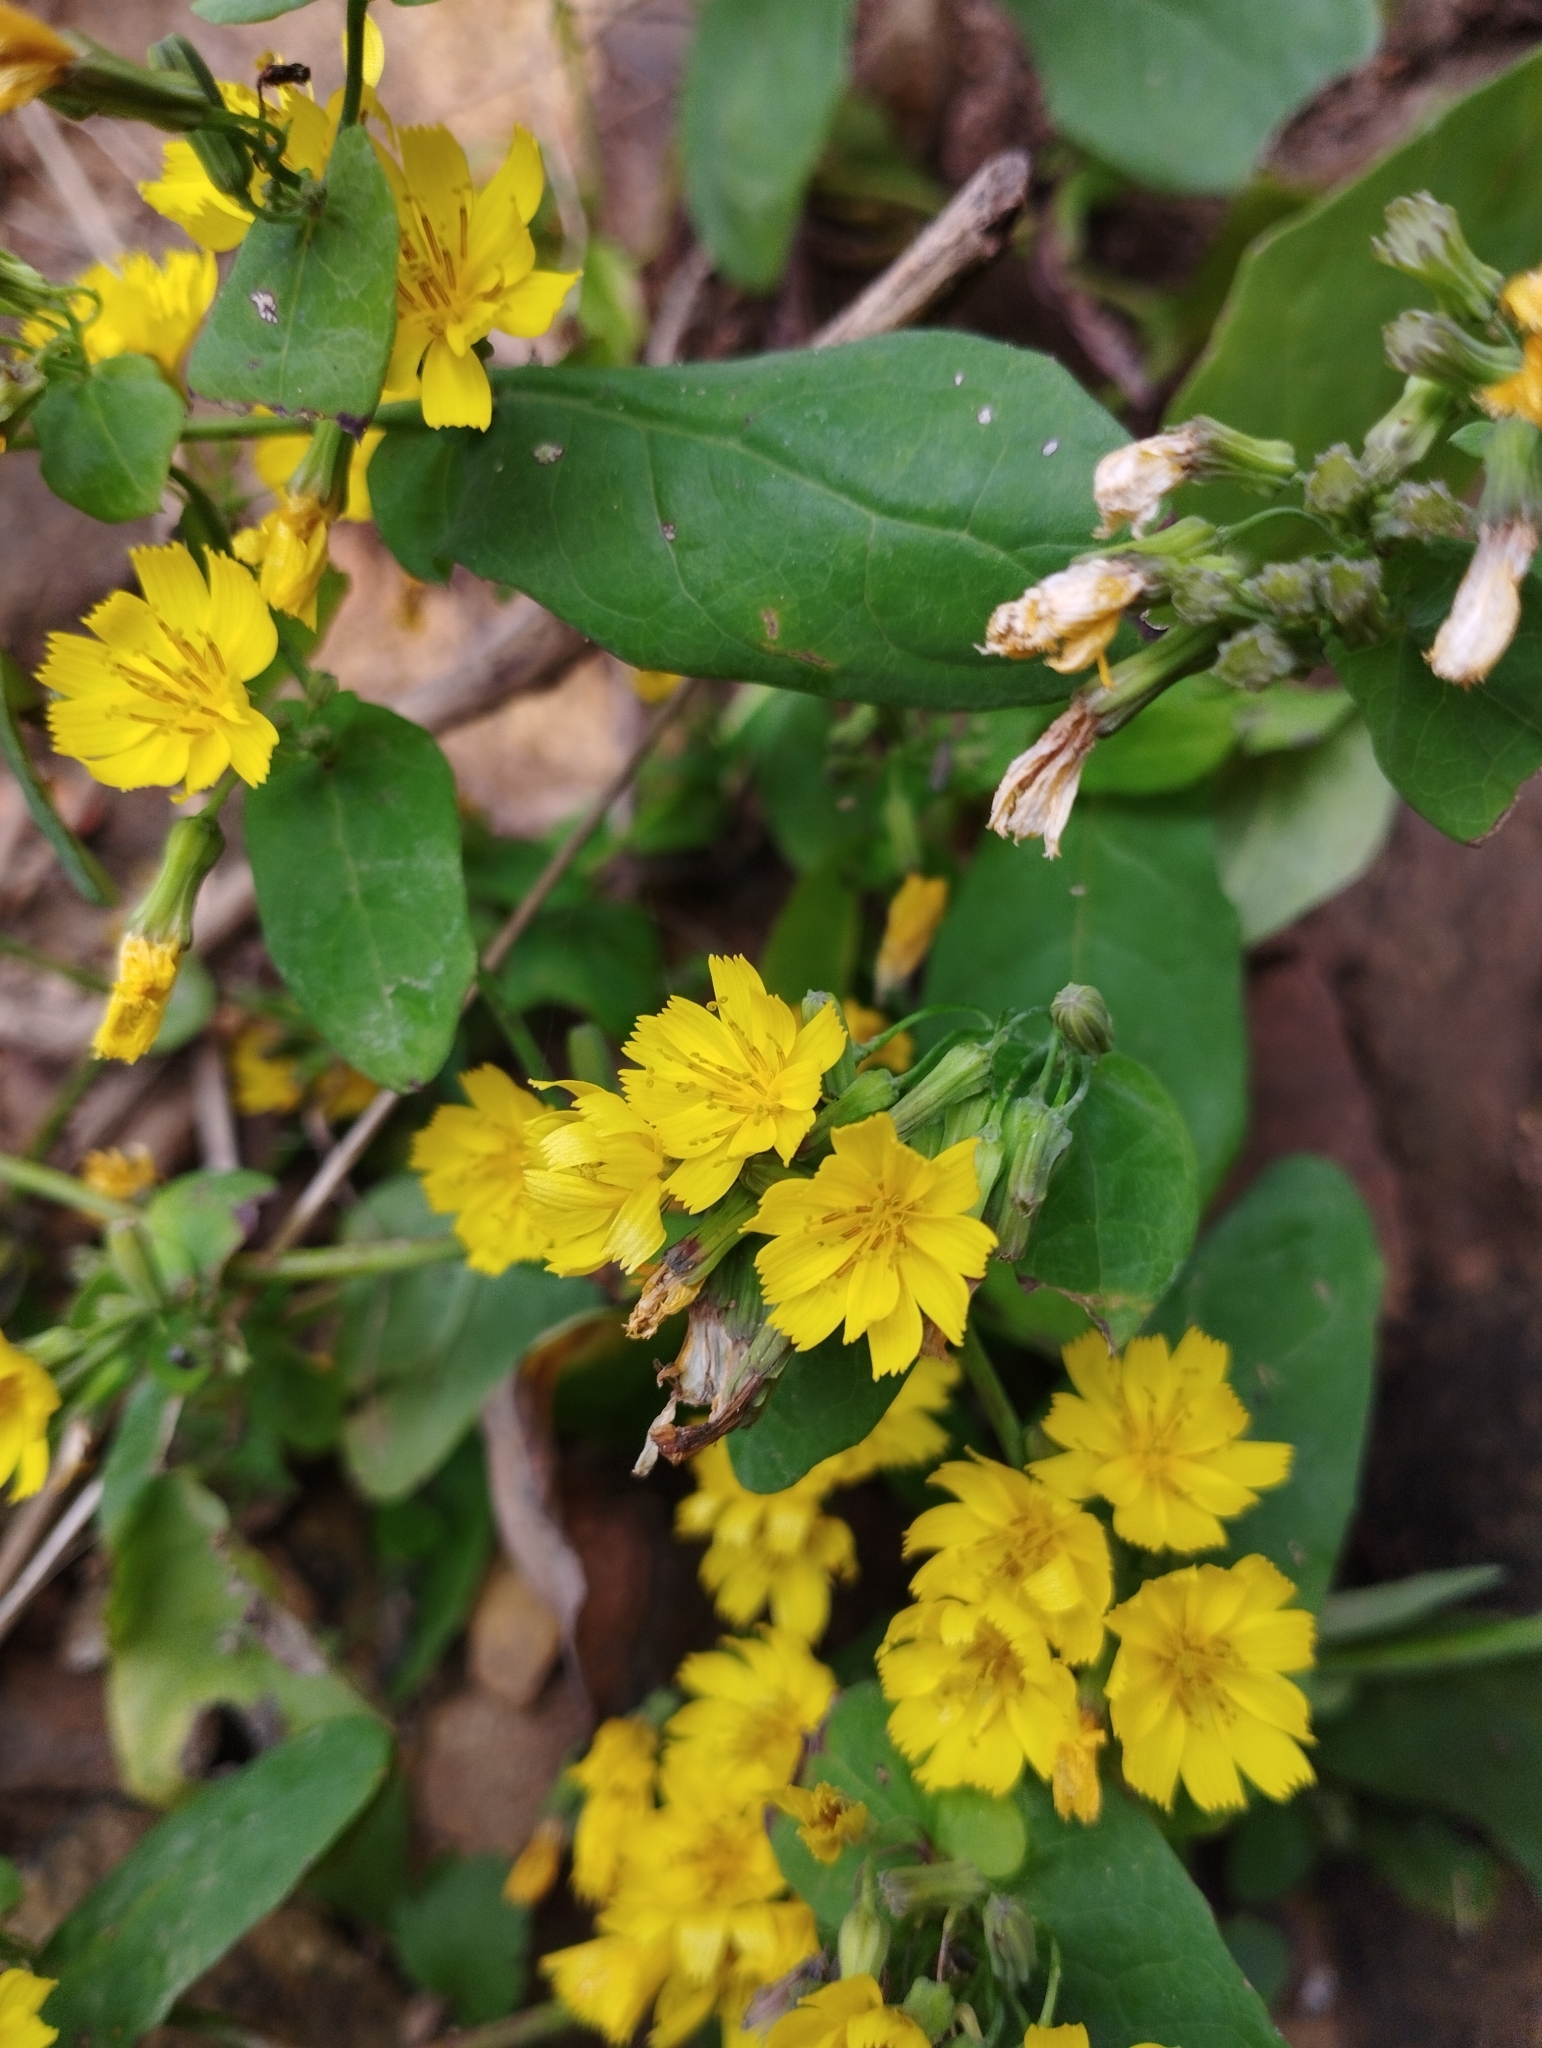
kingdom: Plantae
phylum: Tracheophyta
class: Magnoliopsida
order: Asterales
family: Asteraceae
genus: Crepidiastrum
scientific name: Crepidiastrum denticulatum
